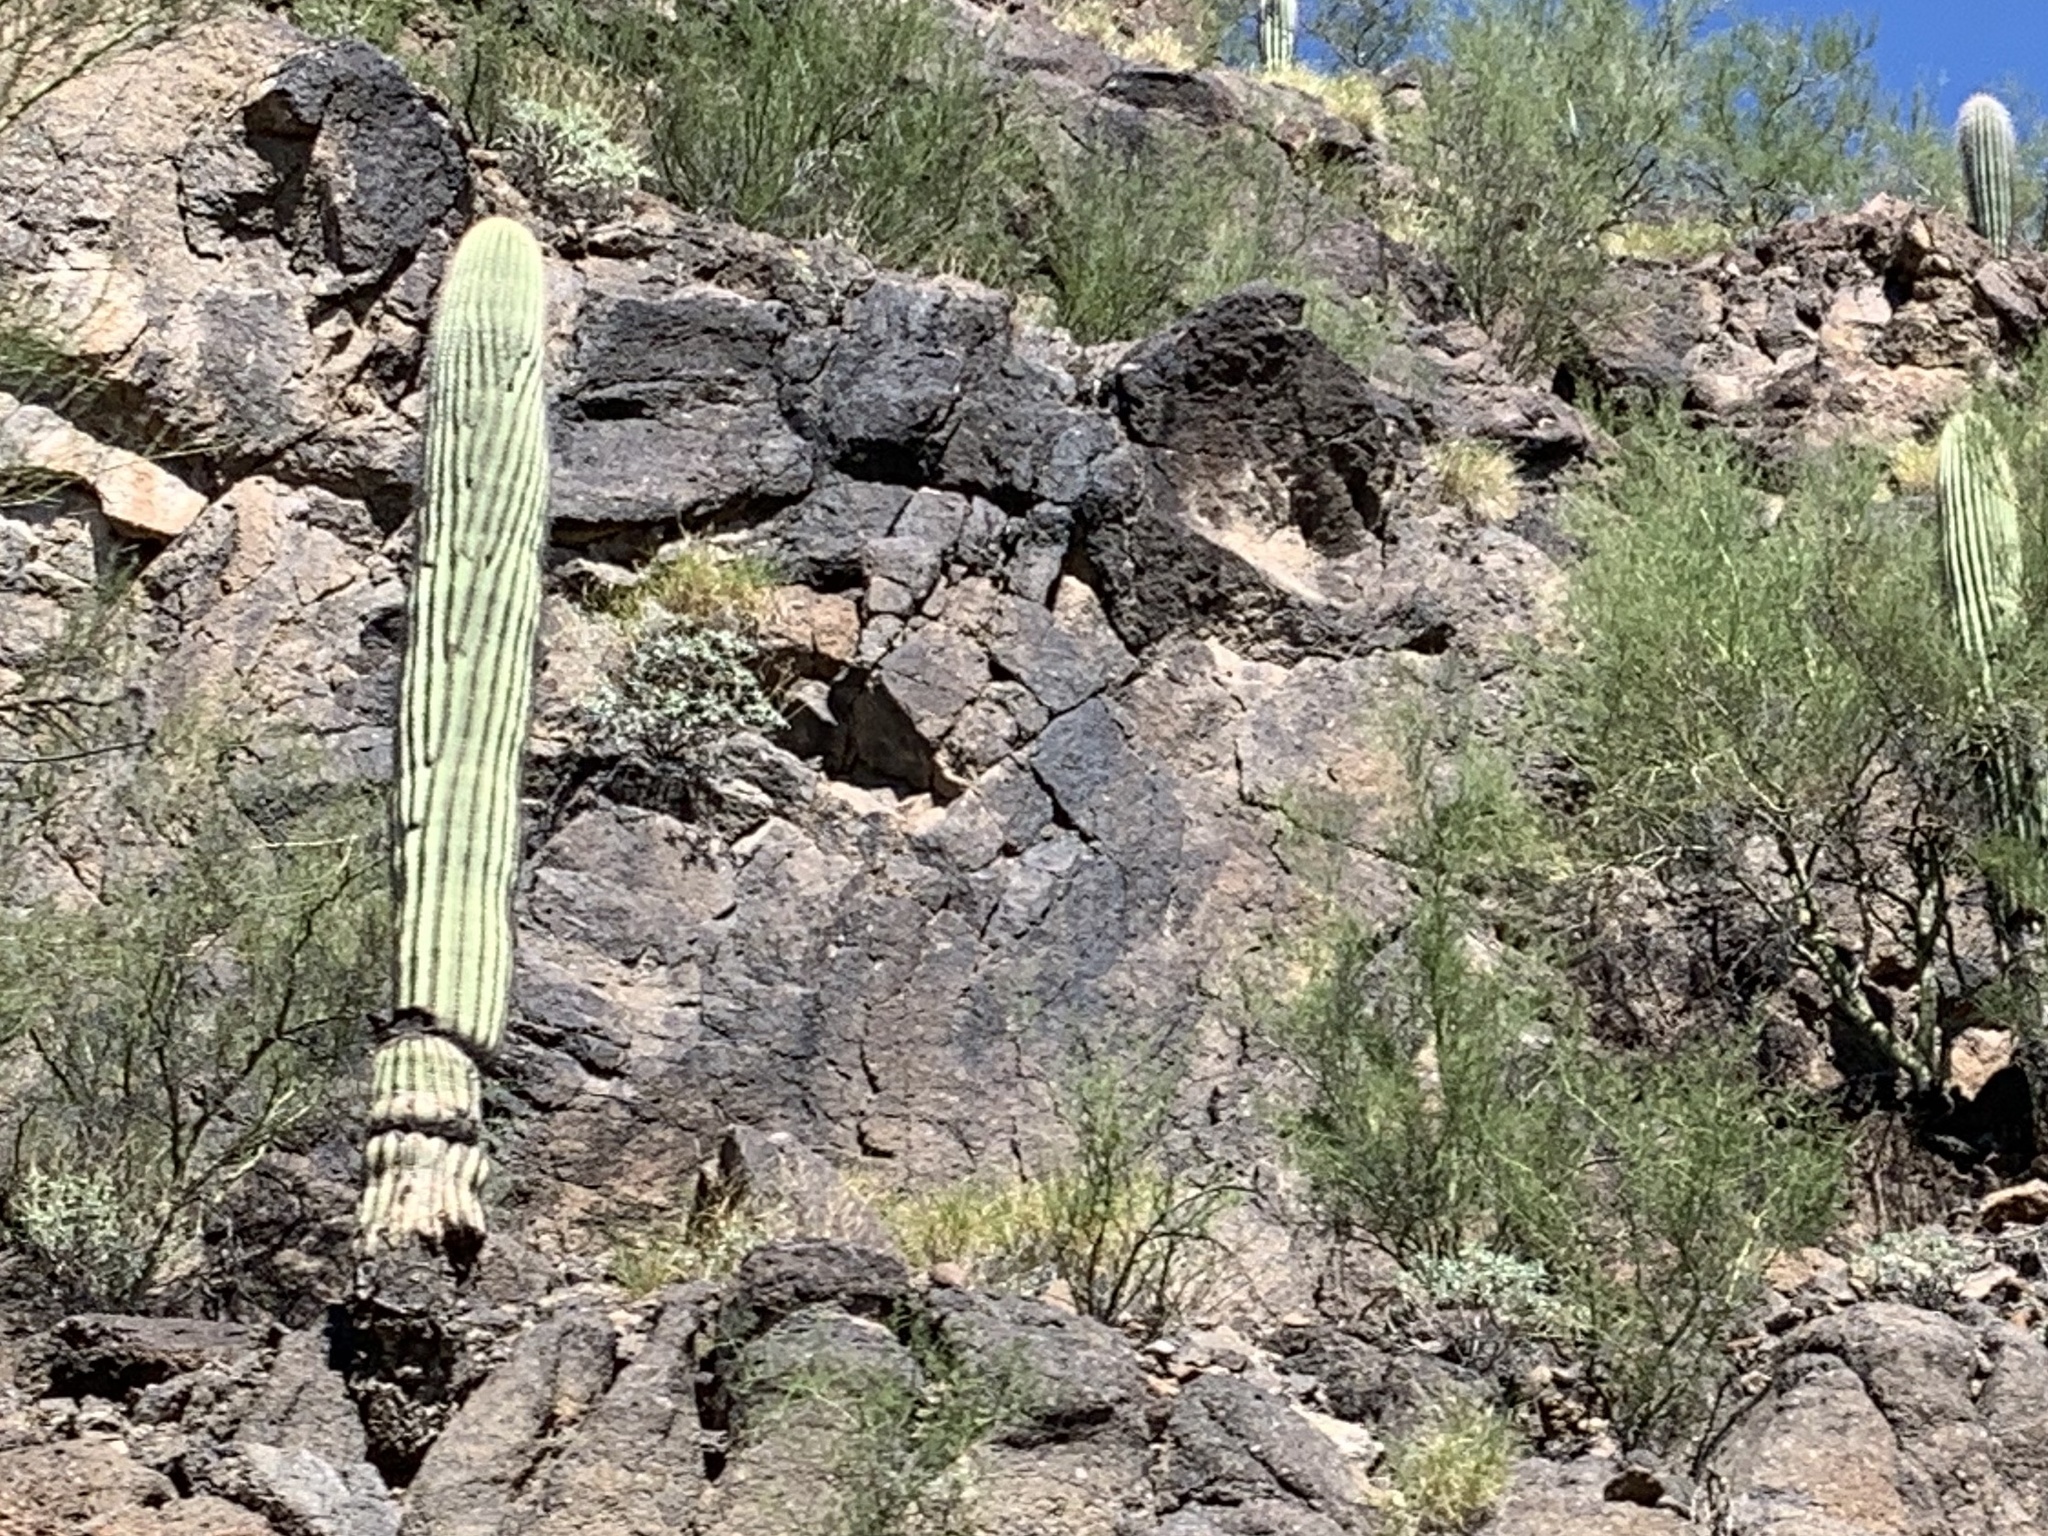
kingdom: Plantae
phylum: Tracheophyta
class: Magnoliopsida
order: Caryophyllales
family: Cactaceae
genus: Carnegiea
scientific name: Carnegiea gigantea
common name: Saguaro
